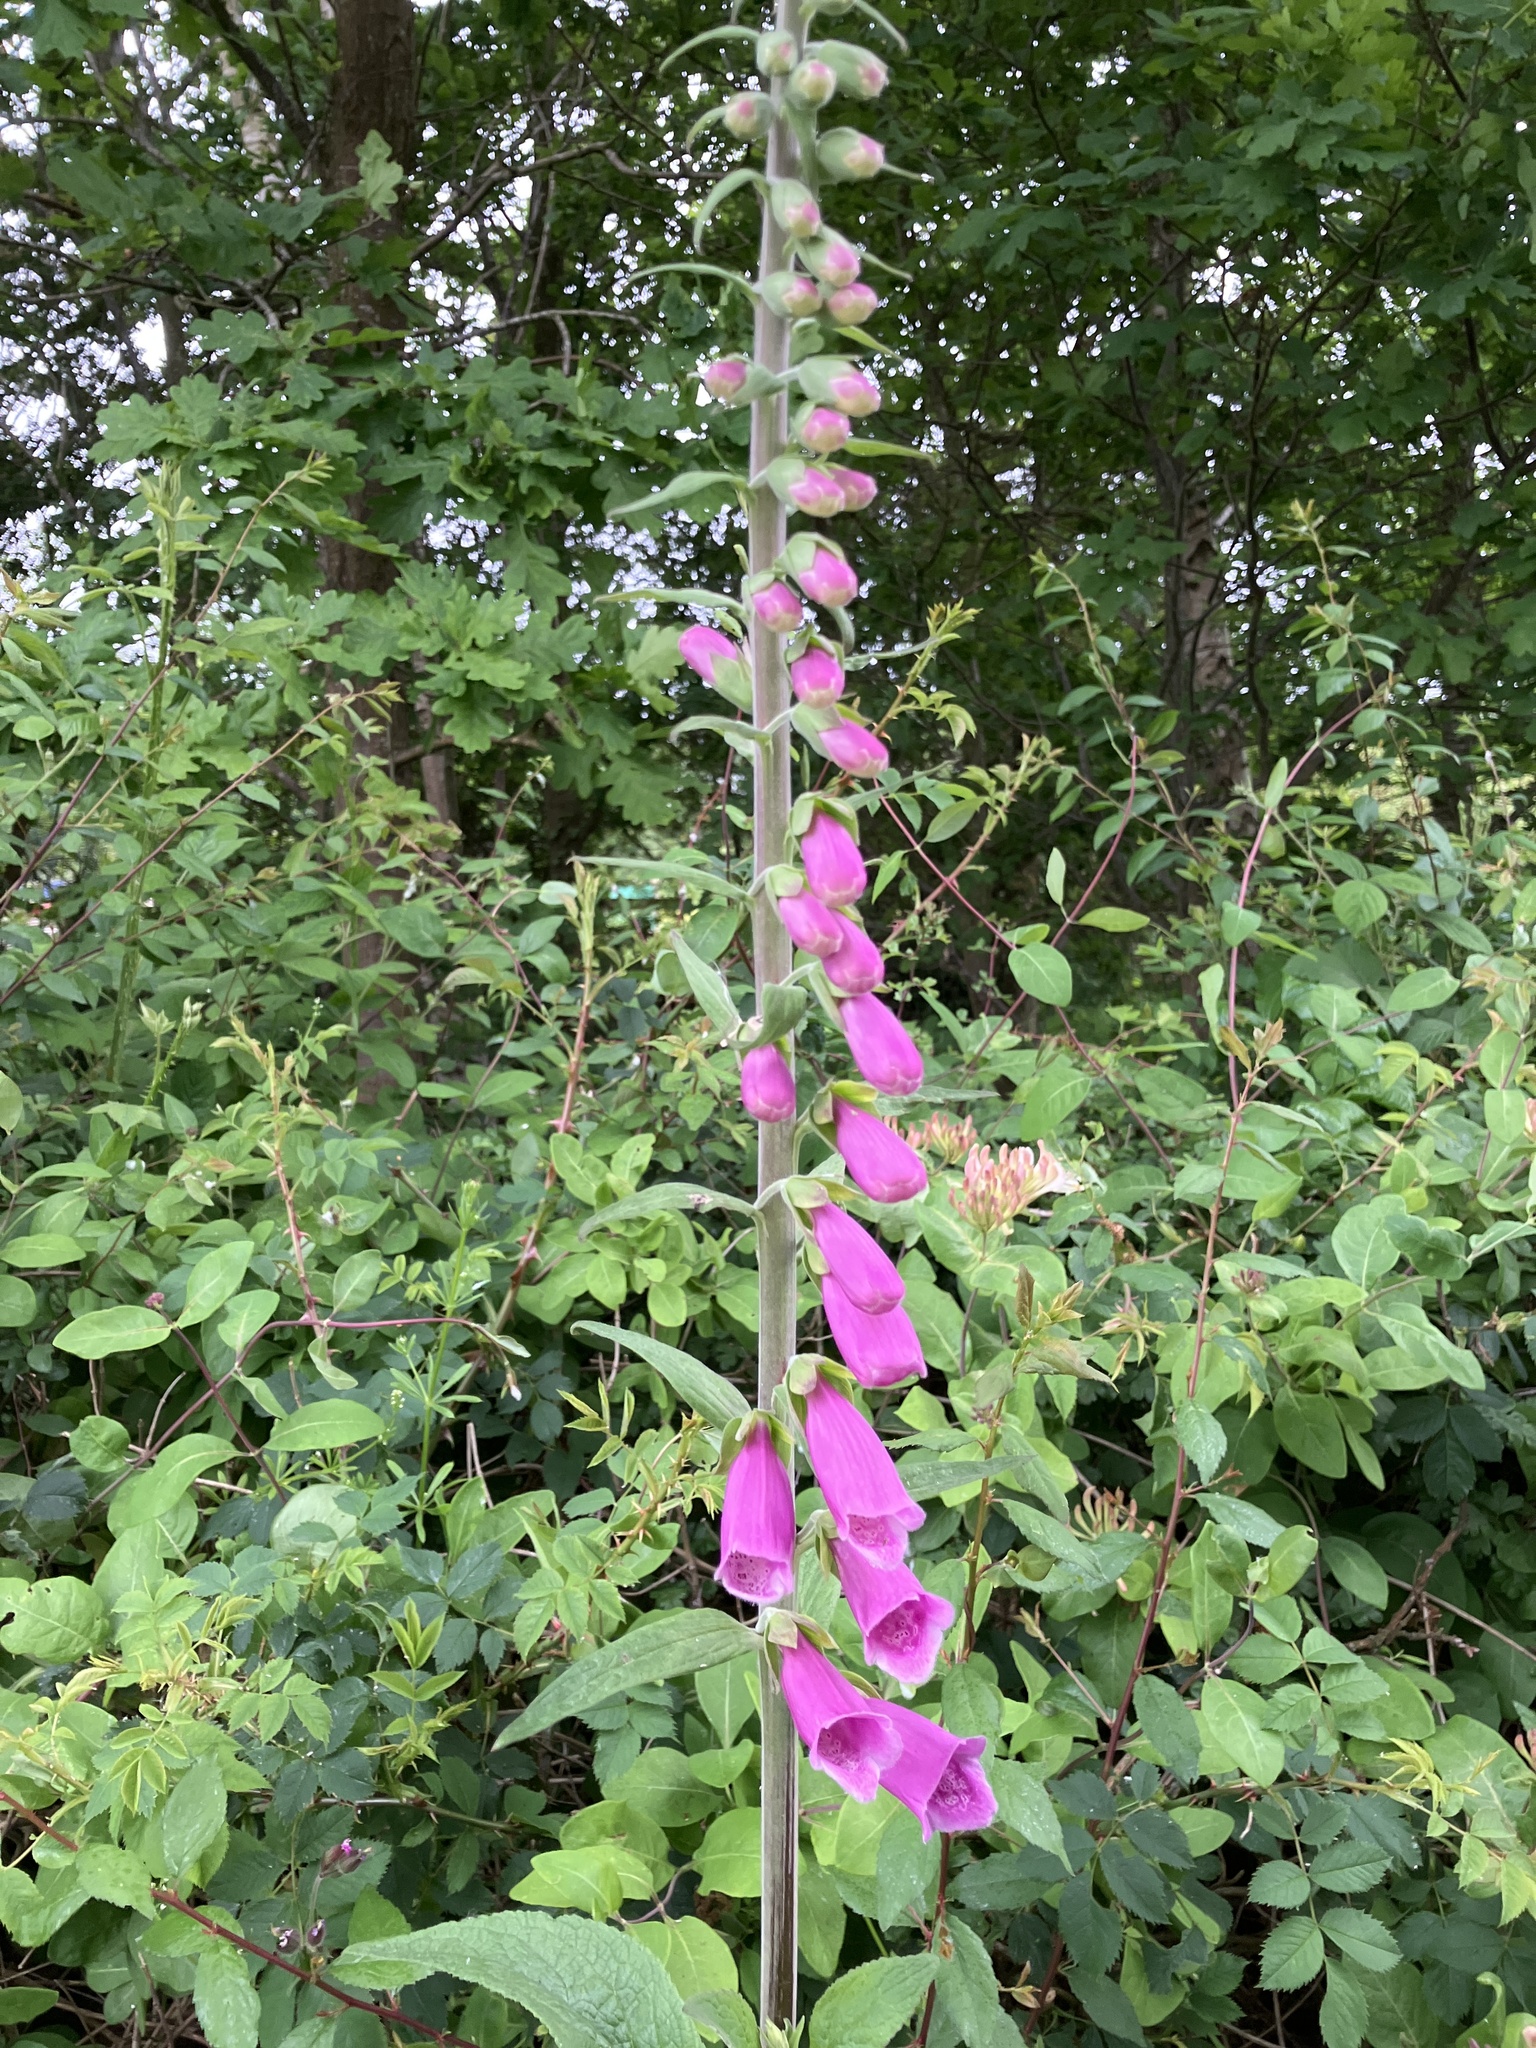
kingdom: Plantae
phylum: Tracheophyta
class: Magnoliopsida
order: Lamiales
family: Plantaginaceae
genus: Digitalis
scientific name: Digitalis purpurea
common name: Foxglove
